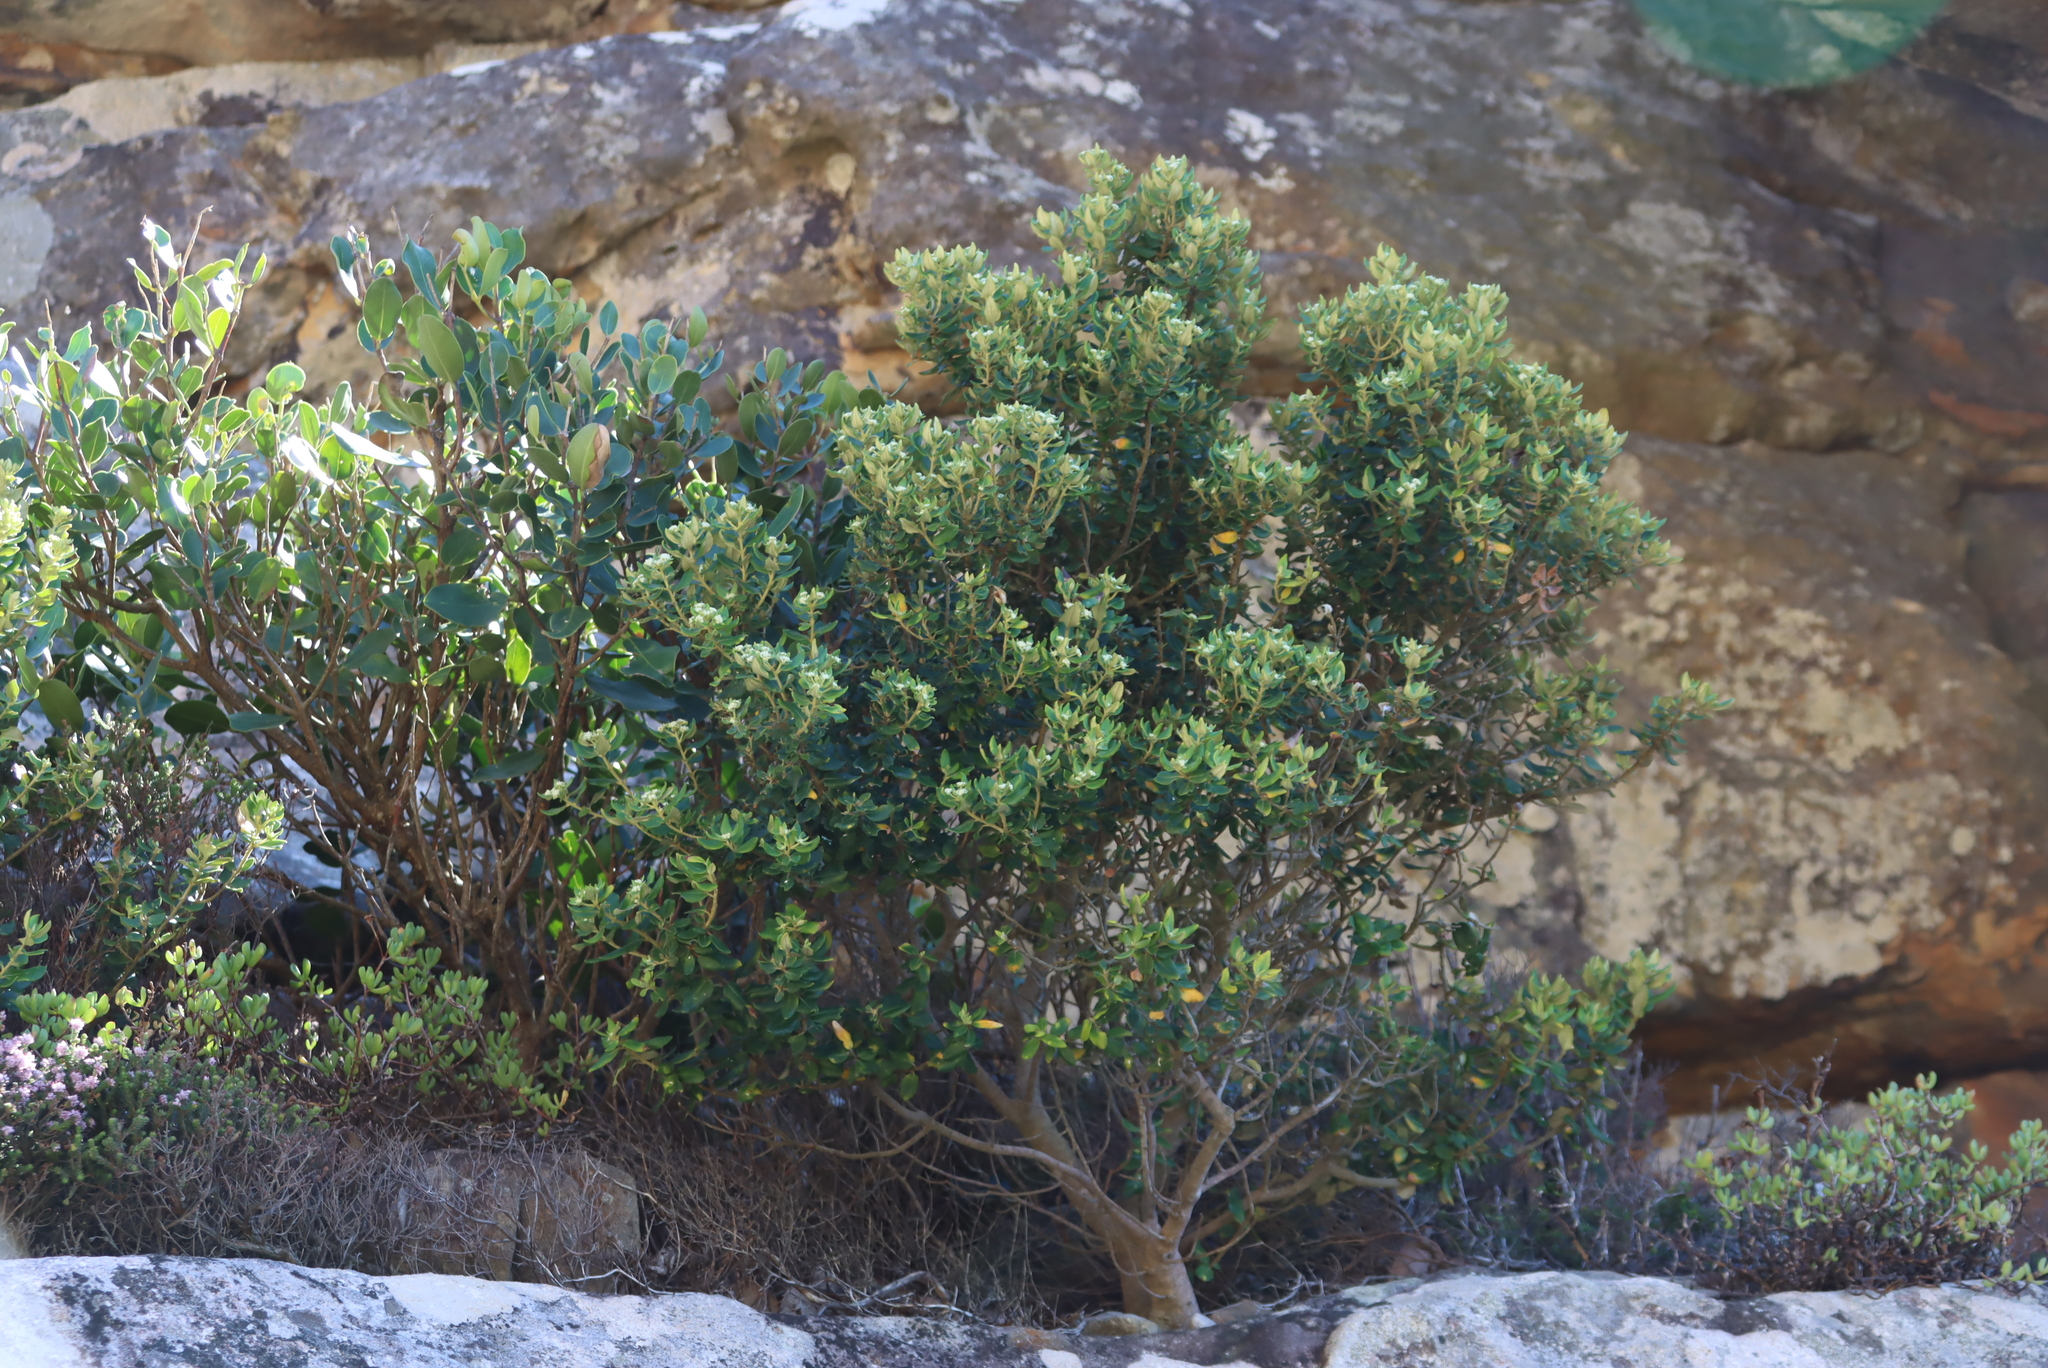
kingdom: Plantae
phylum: Tracheophyta
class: Magnoliopsida
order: Rosales
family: Rhamnaceae
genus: Phylica
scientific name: Phylica buxifolia
